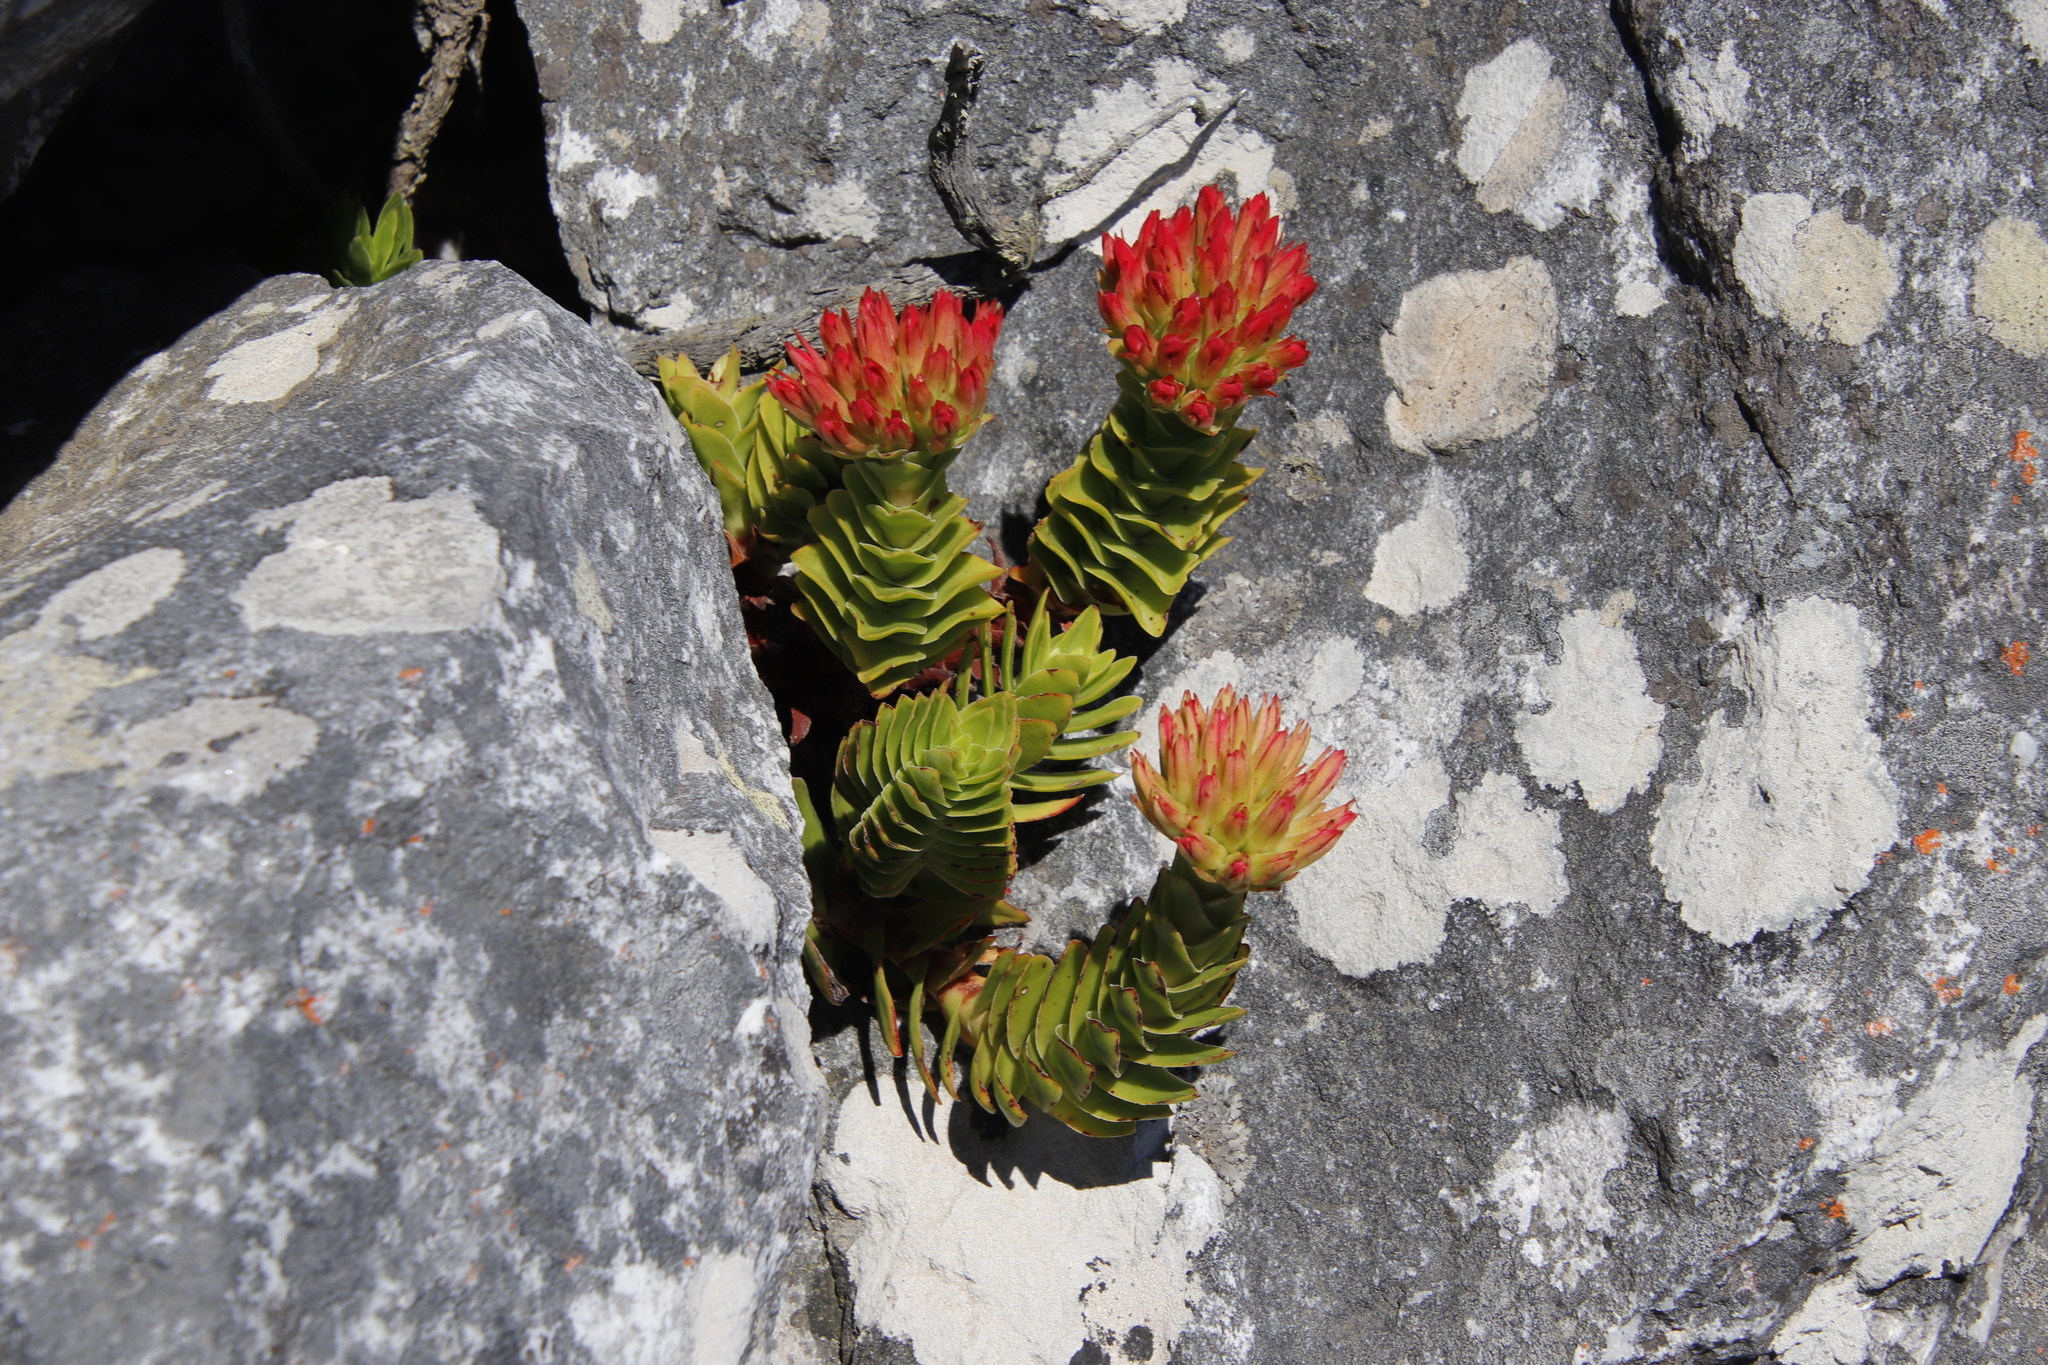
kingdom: Plantae
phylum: Tracheophyta
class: Magnoliopsida
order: Saxifragales
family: Crassulaceae
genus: Crassula
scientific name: Crassula coccinea
